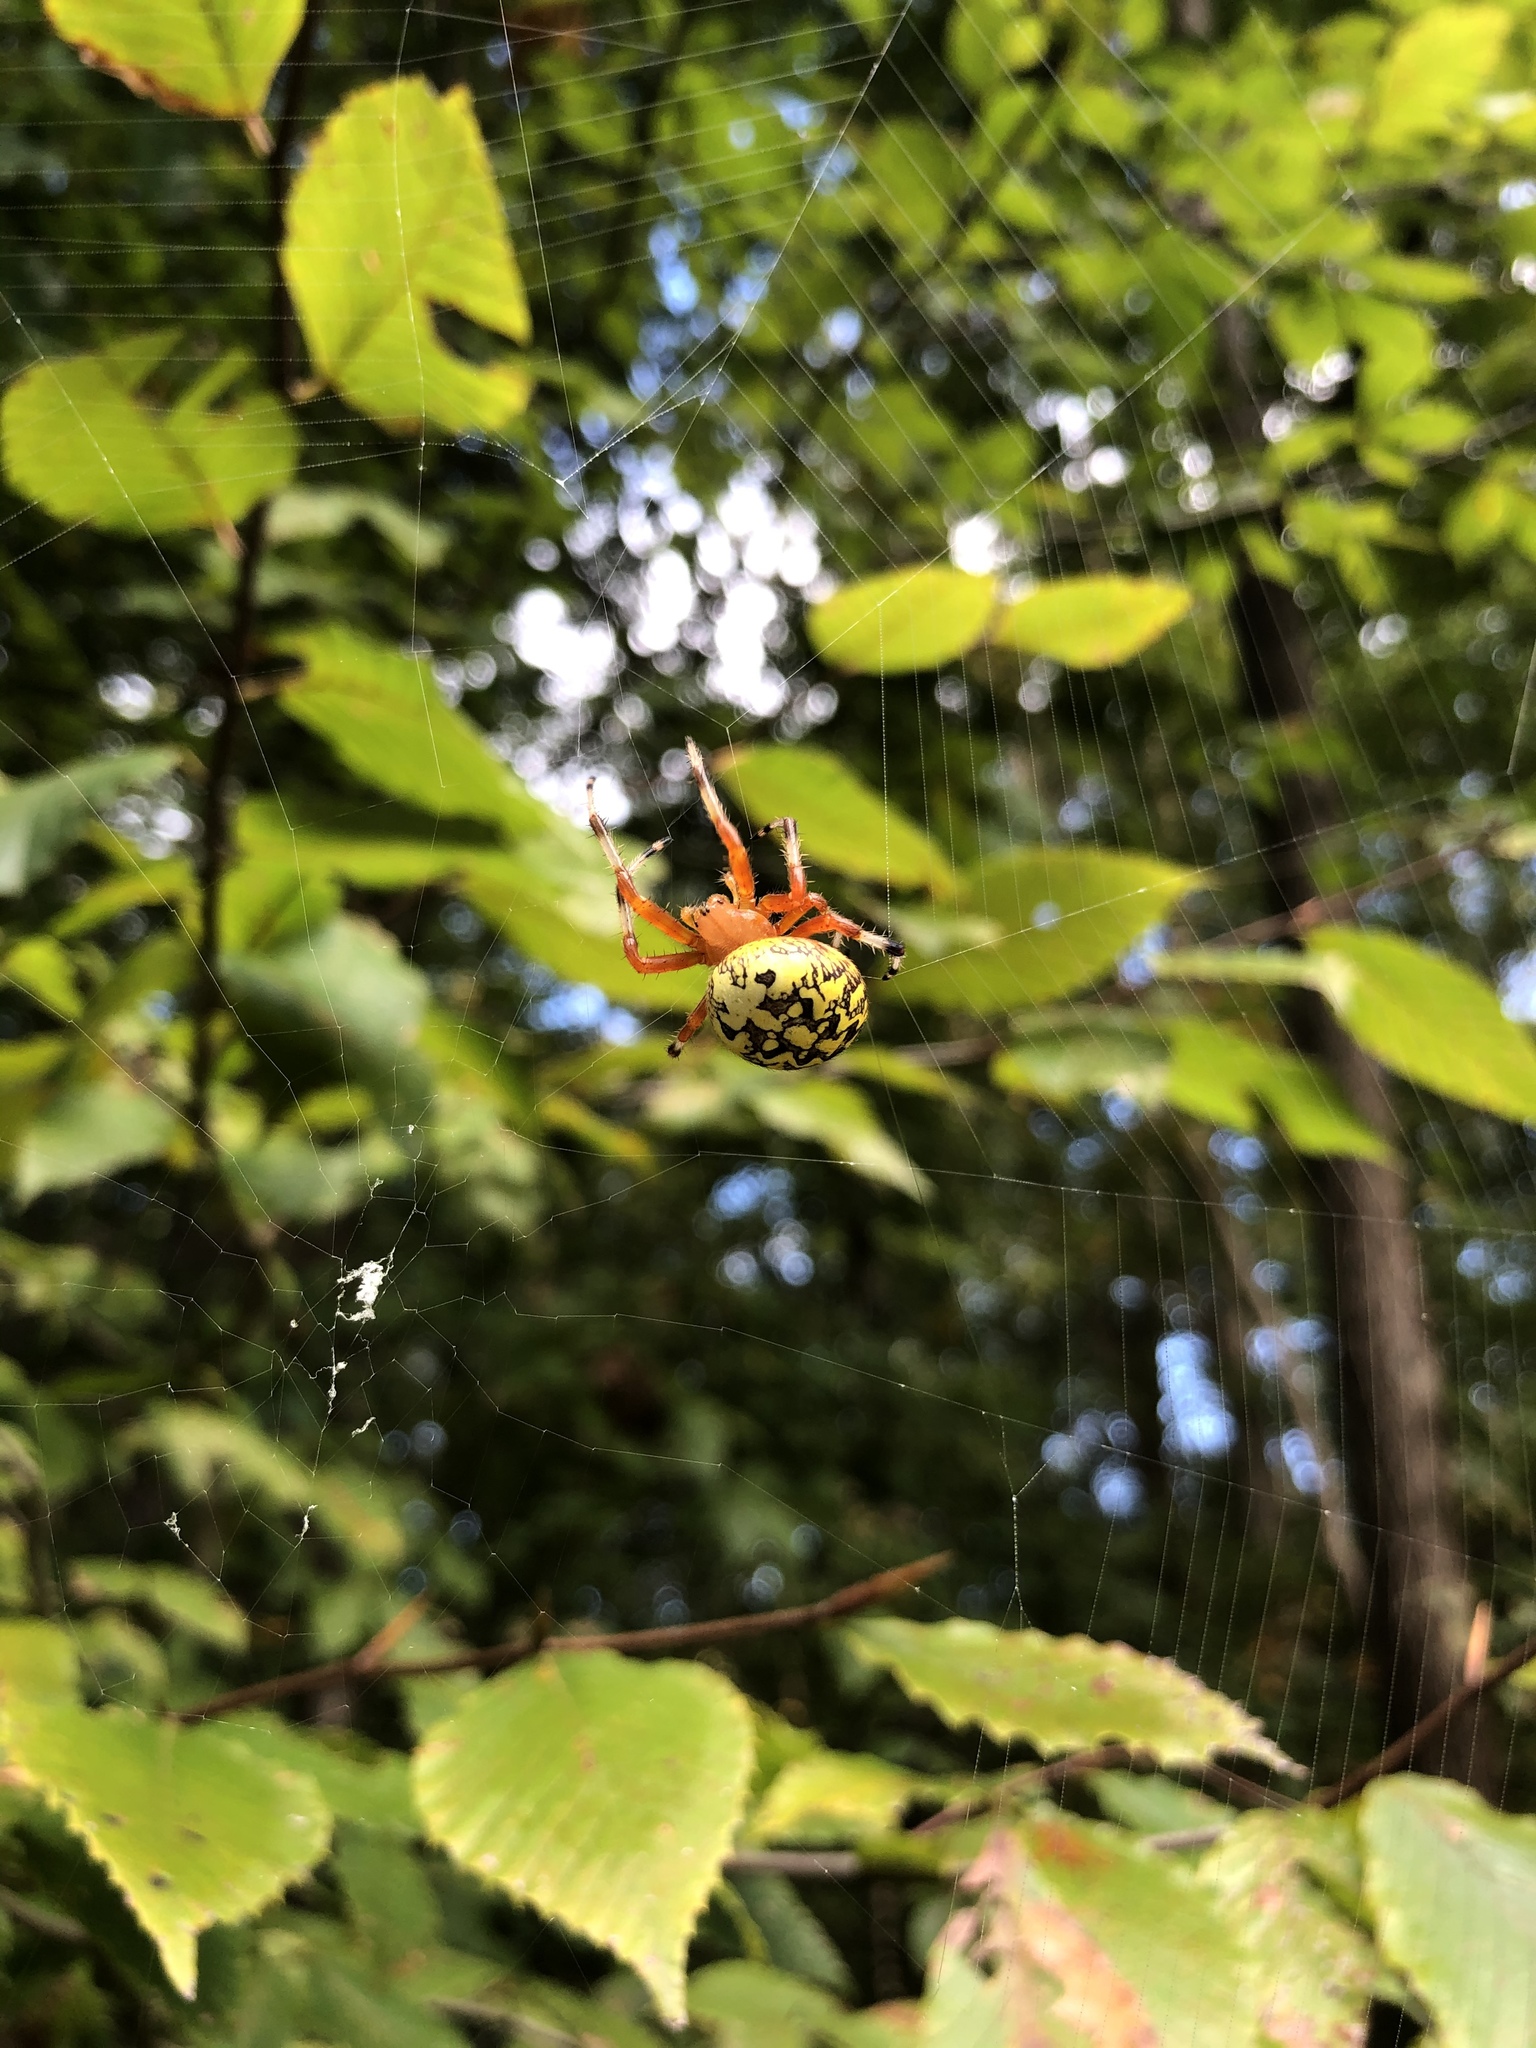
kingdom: Animalia
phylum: Arthropoda
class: Arachnida
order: Araneae
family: Araneidae
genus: Araneus
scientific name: Araneus marmoreus
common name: Marbled orbweaver
